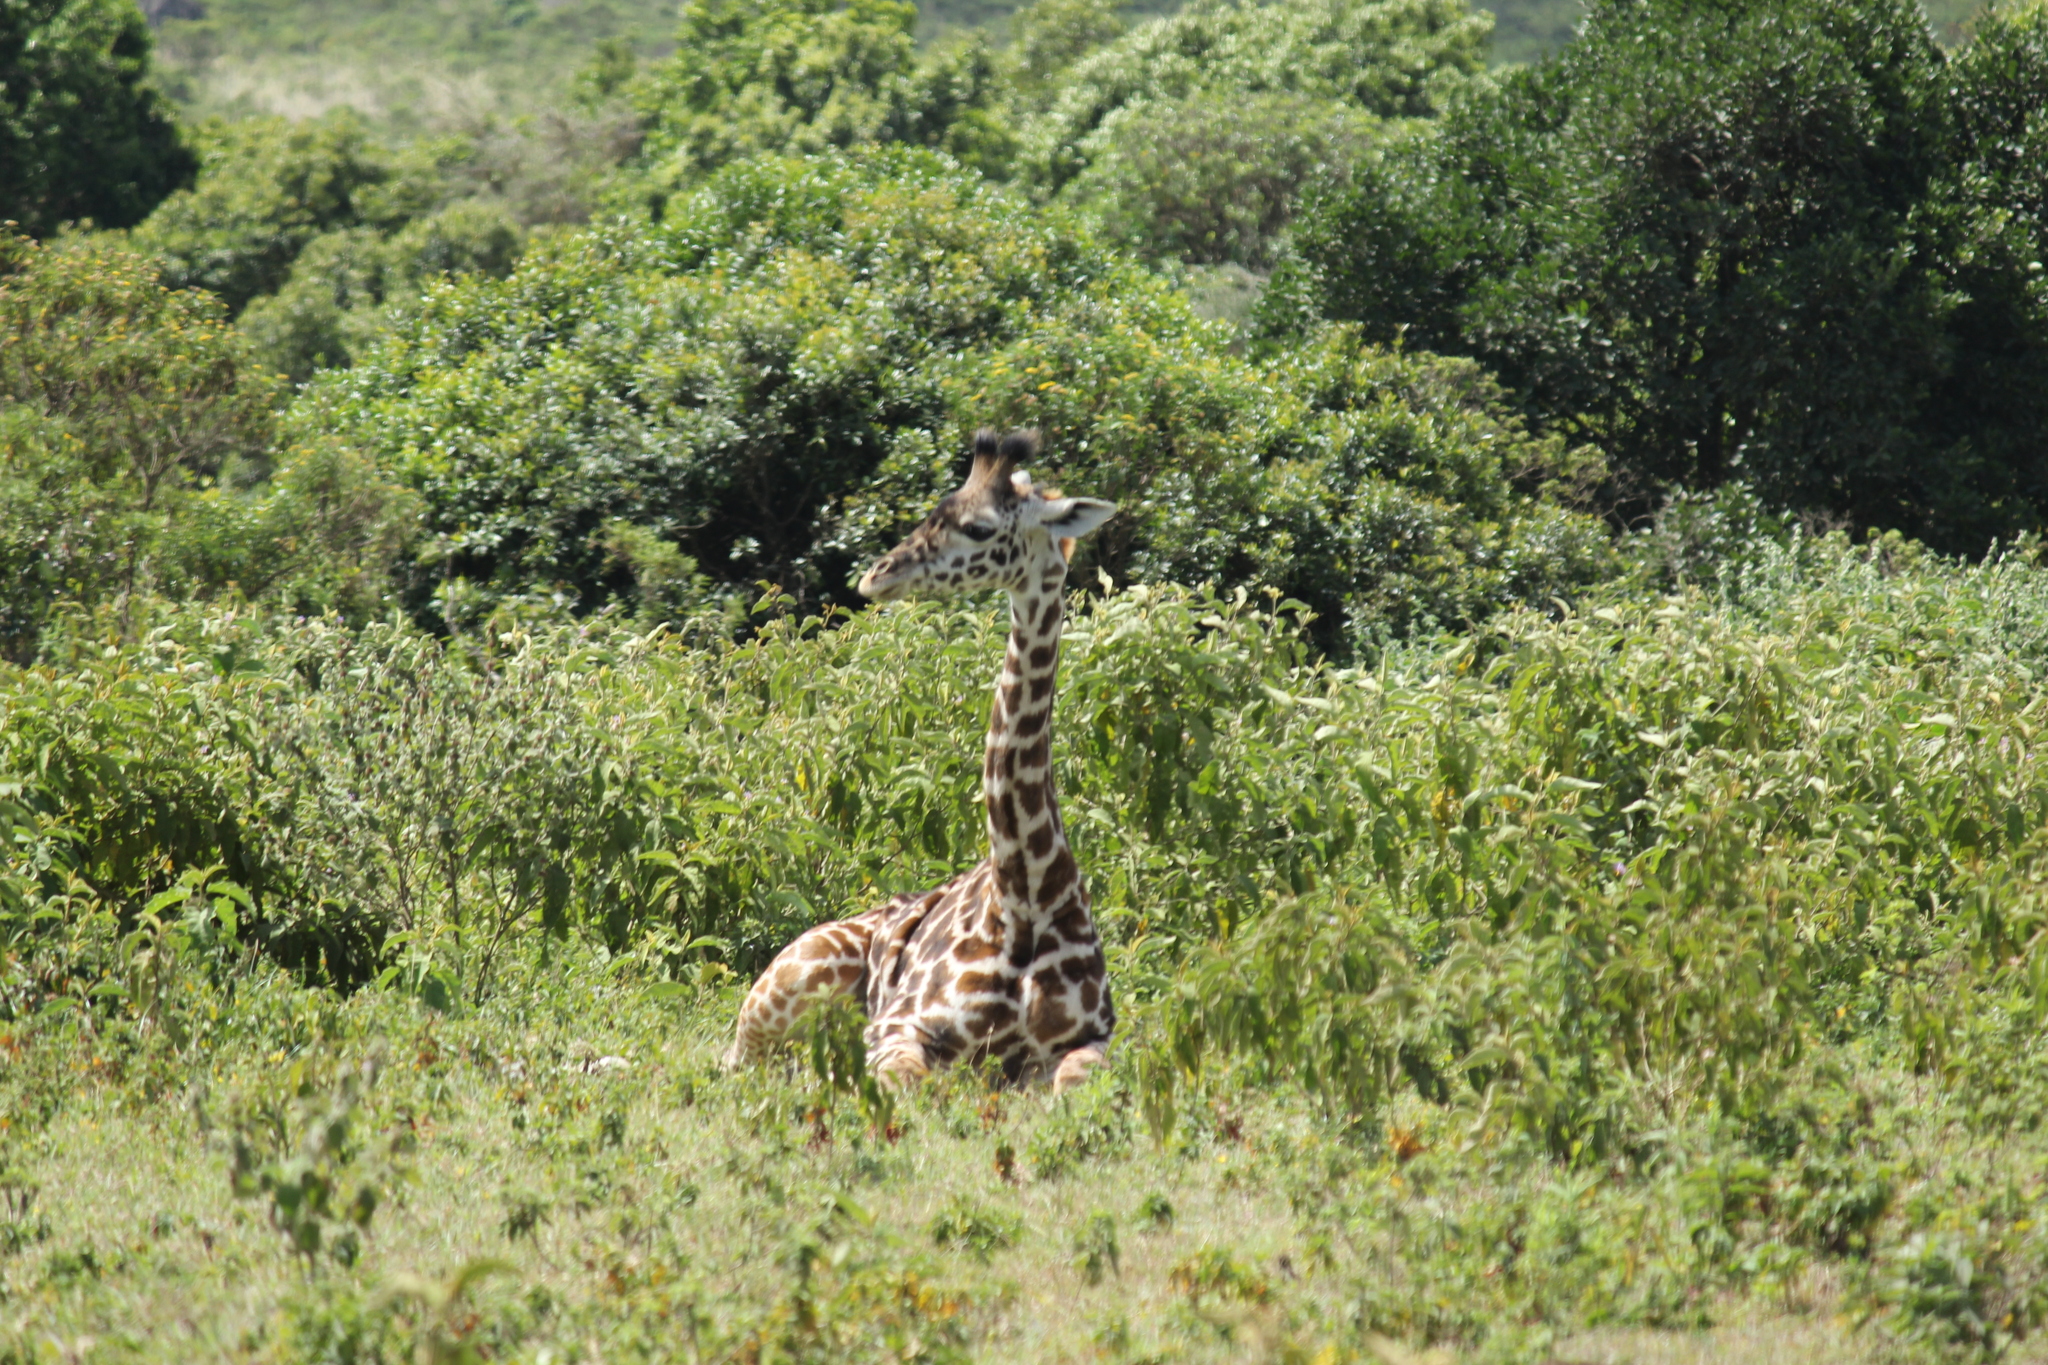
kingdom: Animalia
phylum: Chordata
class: Mammalia
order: Artiodactyla
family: Giraffidae
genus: Giraffa
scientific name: Giraffa tippelskirchi
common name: Masai giraffe
